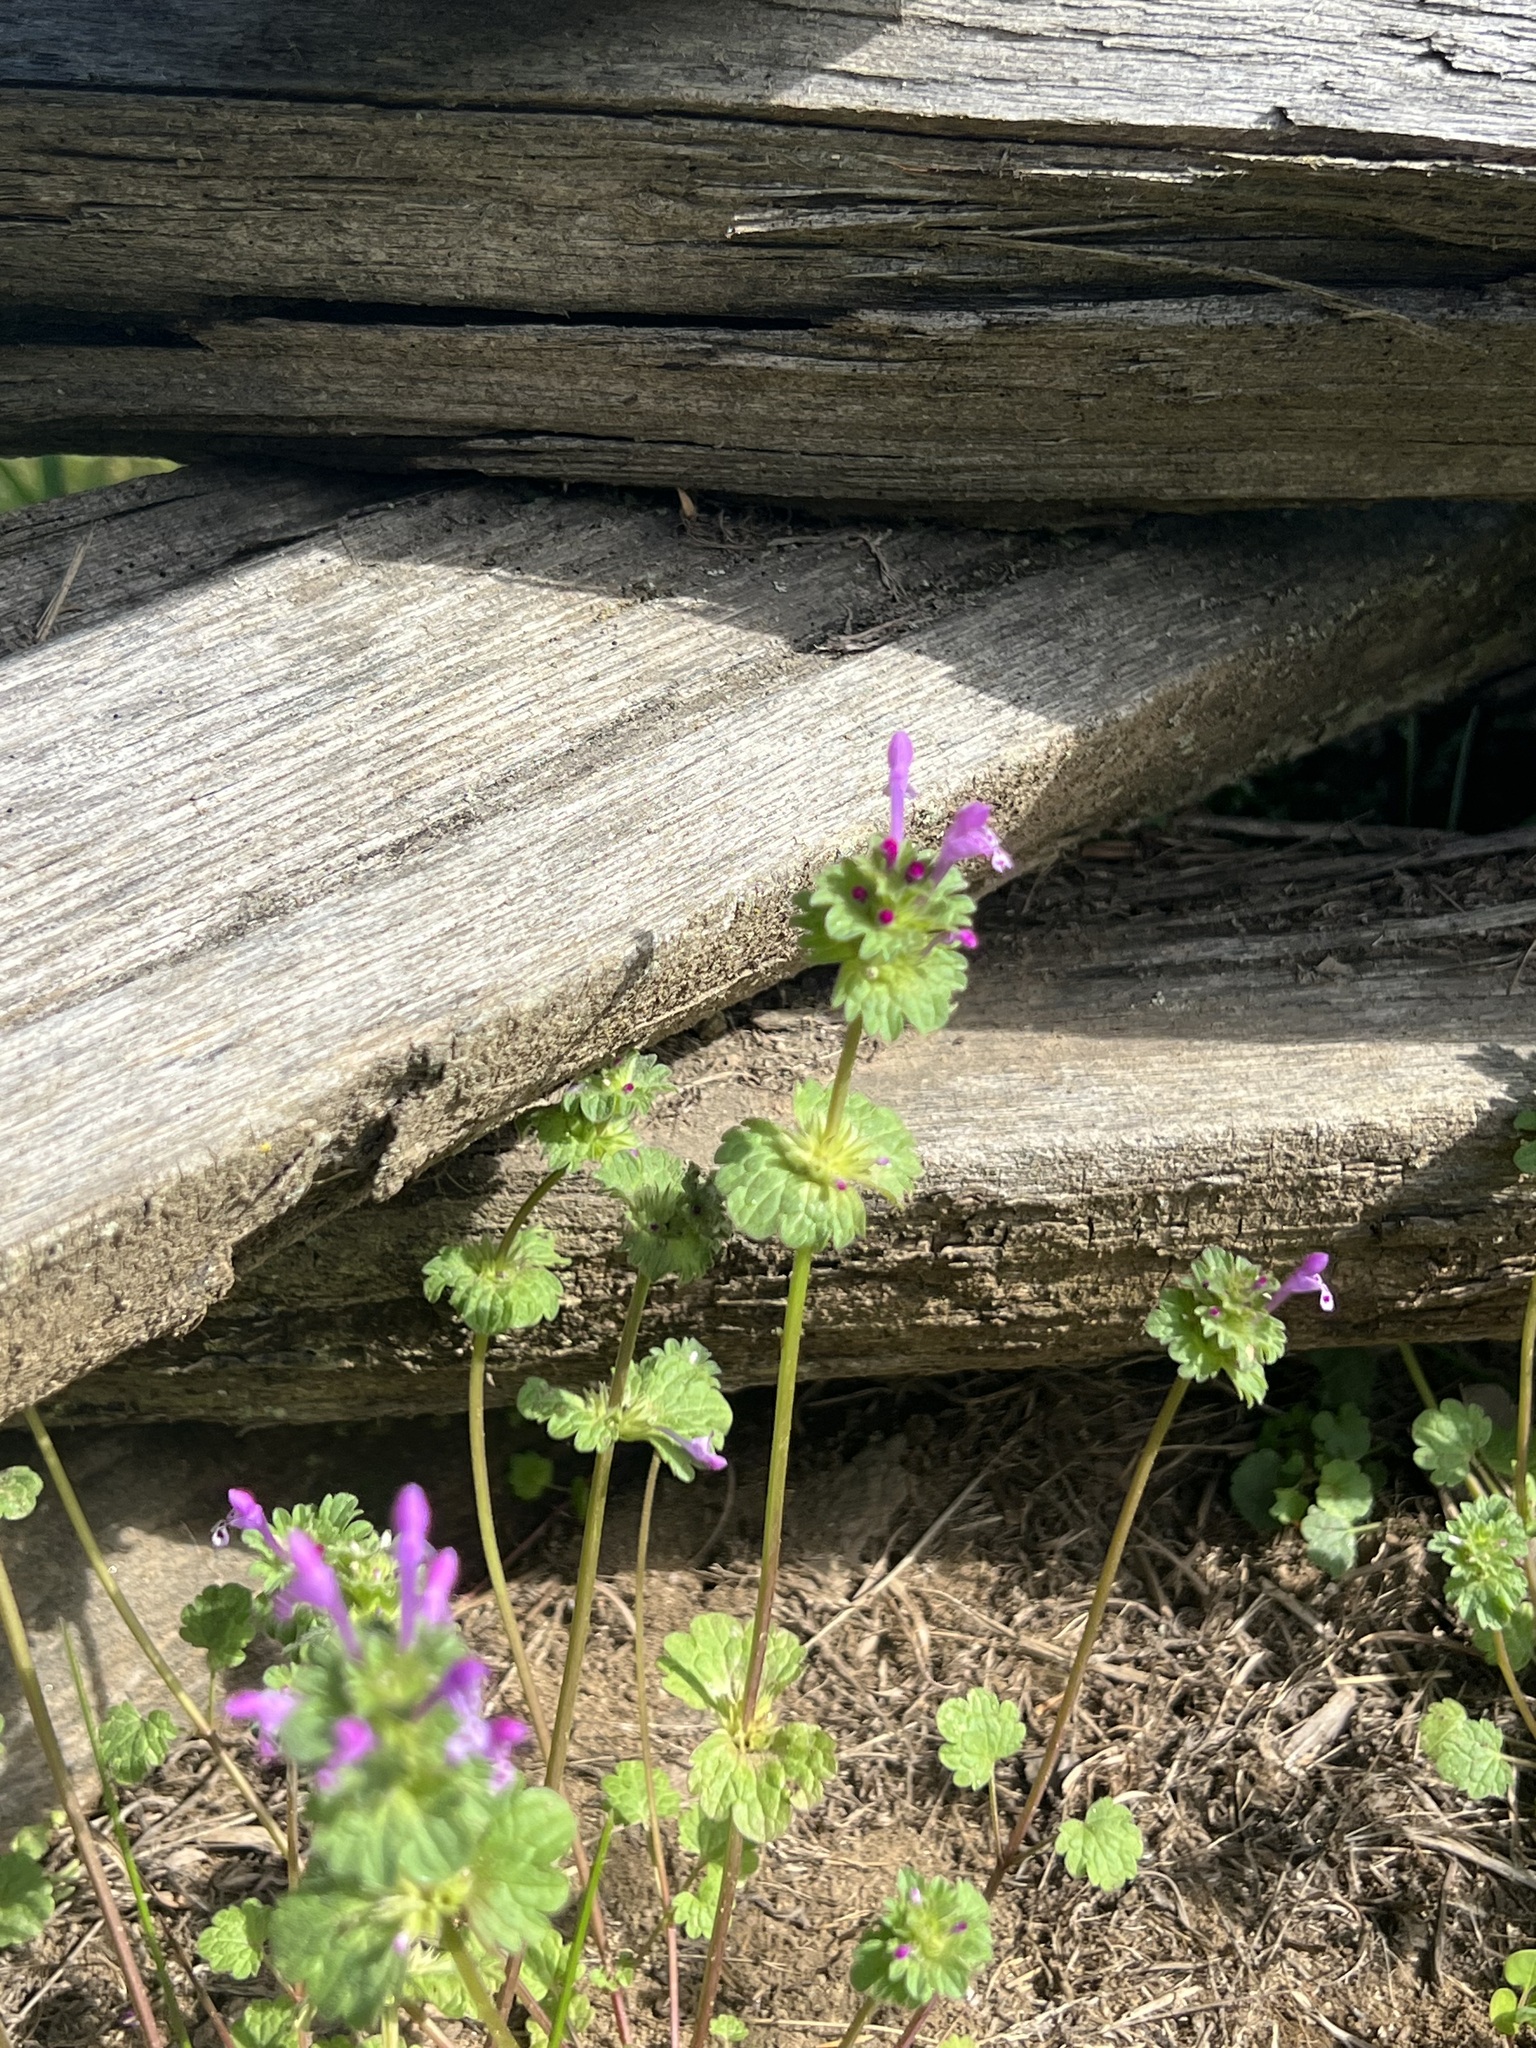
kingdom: Plantae
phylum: Tracheophyta
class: Magnoliopsida
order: Lamiales
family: Lamiaceae
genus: Lamium
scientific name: Lamium amplexicaule
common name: Henbit dead-nettle
